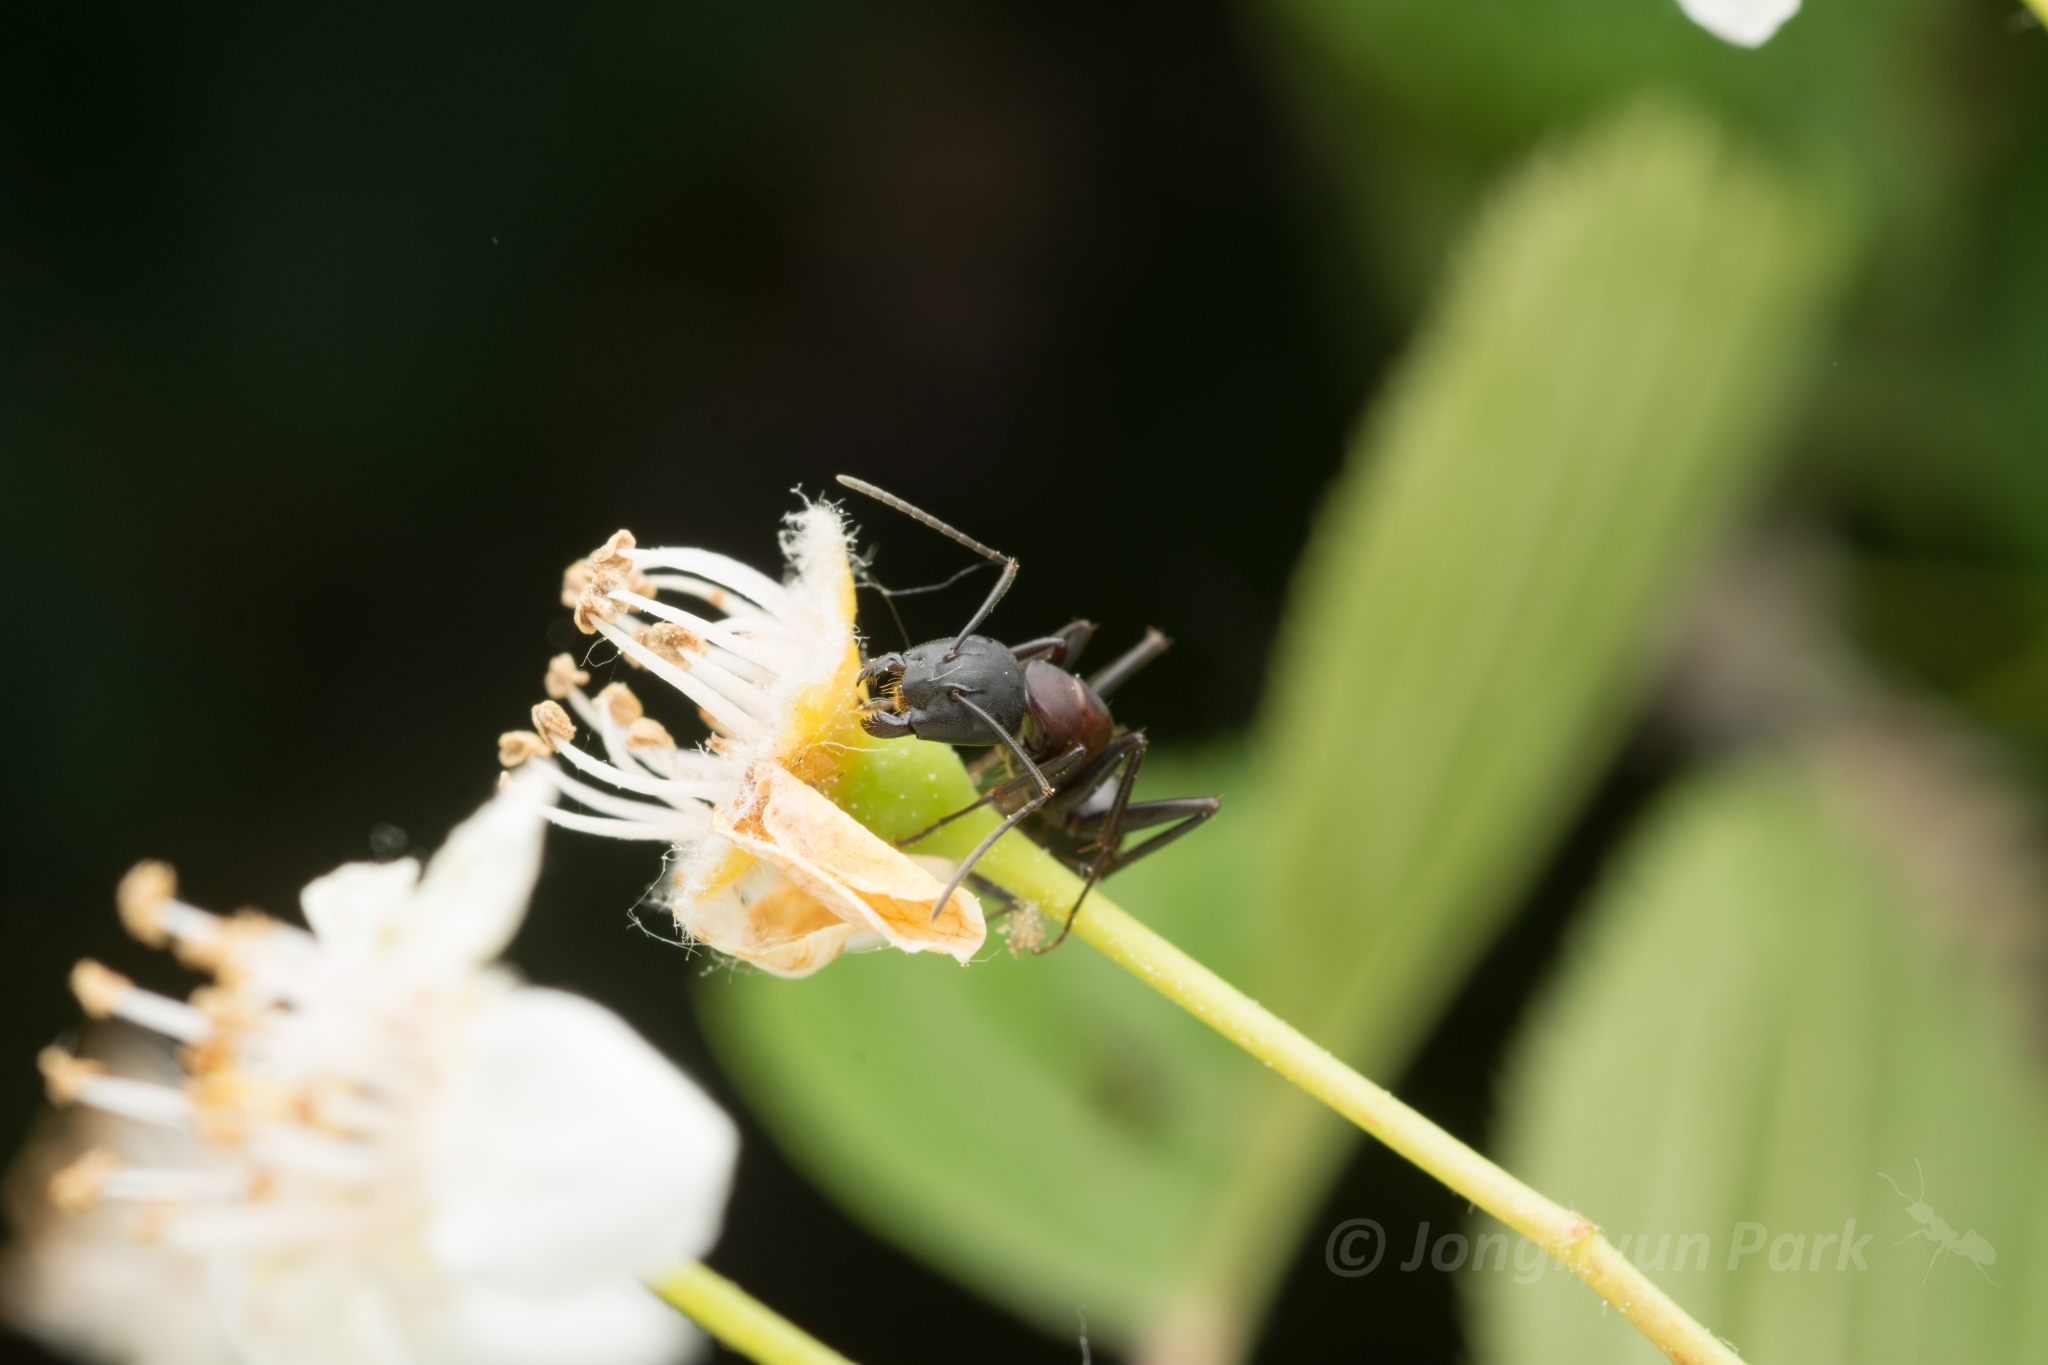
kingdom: Animalia
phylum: Arthropoda
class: Insecta
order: Hymenoptera
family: Formicidae
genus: Camponotus
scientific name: Camponotus atrox
